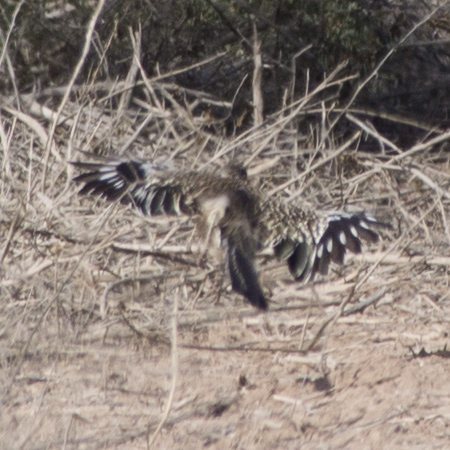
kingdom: Animalia
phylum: Chordata
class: Aves
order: Cuculiformes
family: Cuculidae
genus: Geococcyx
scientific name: Geococcyx californianus
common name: Greater roadrunner
